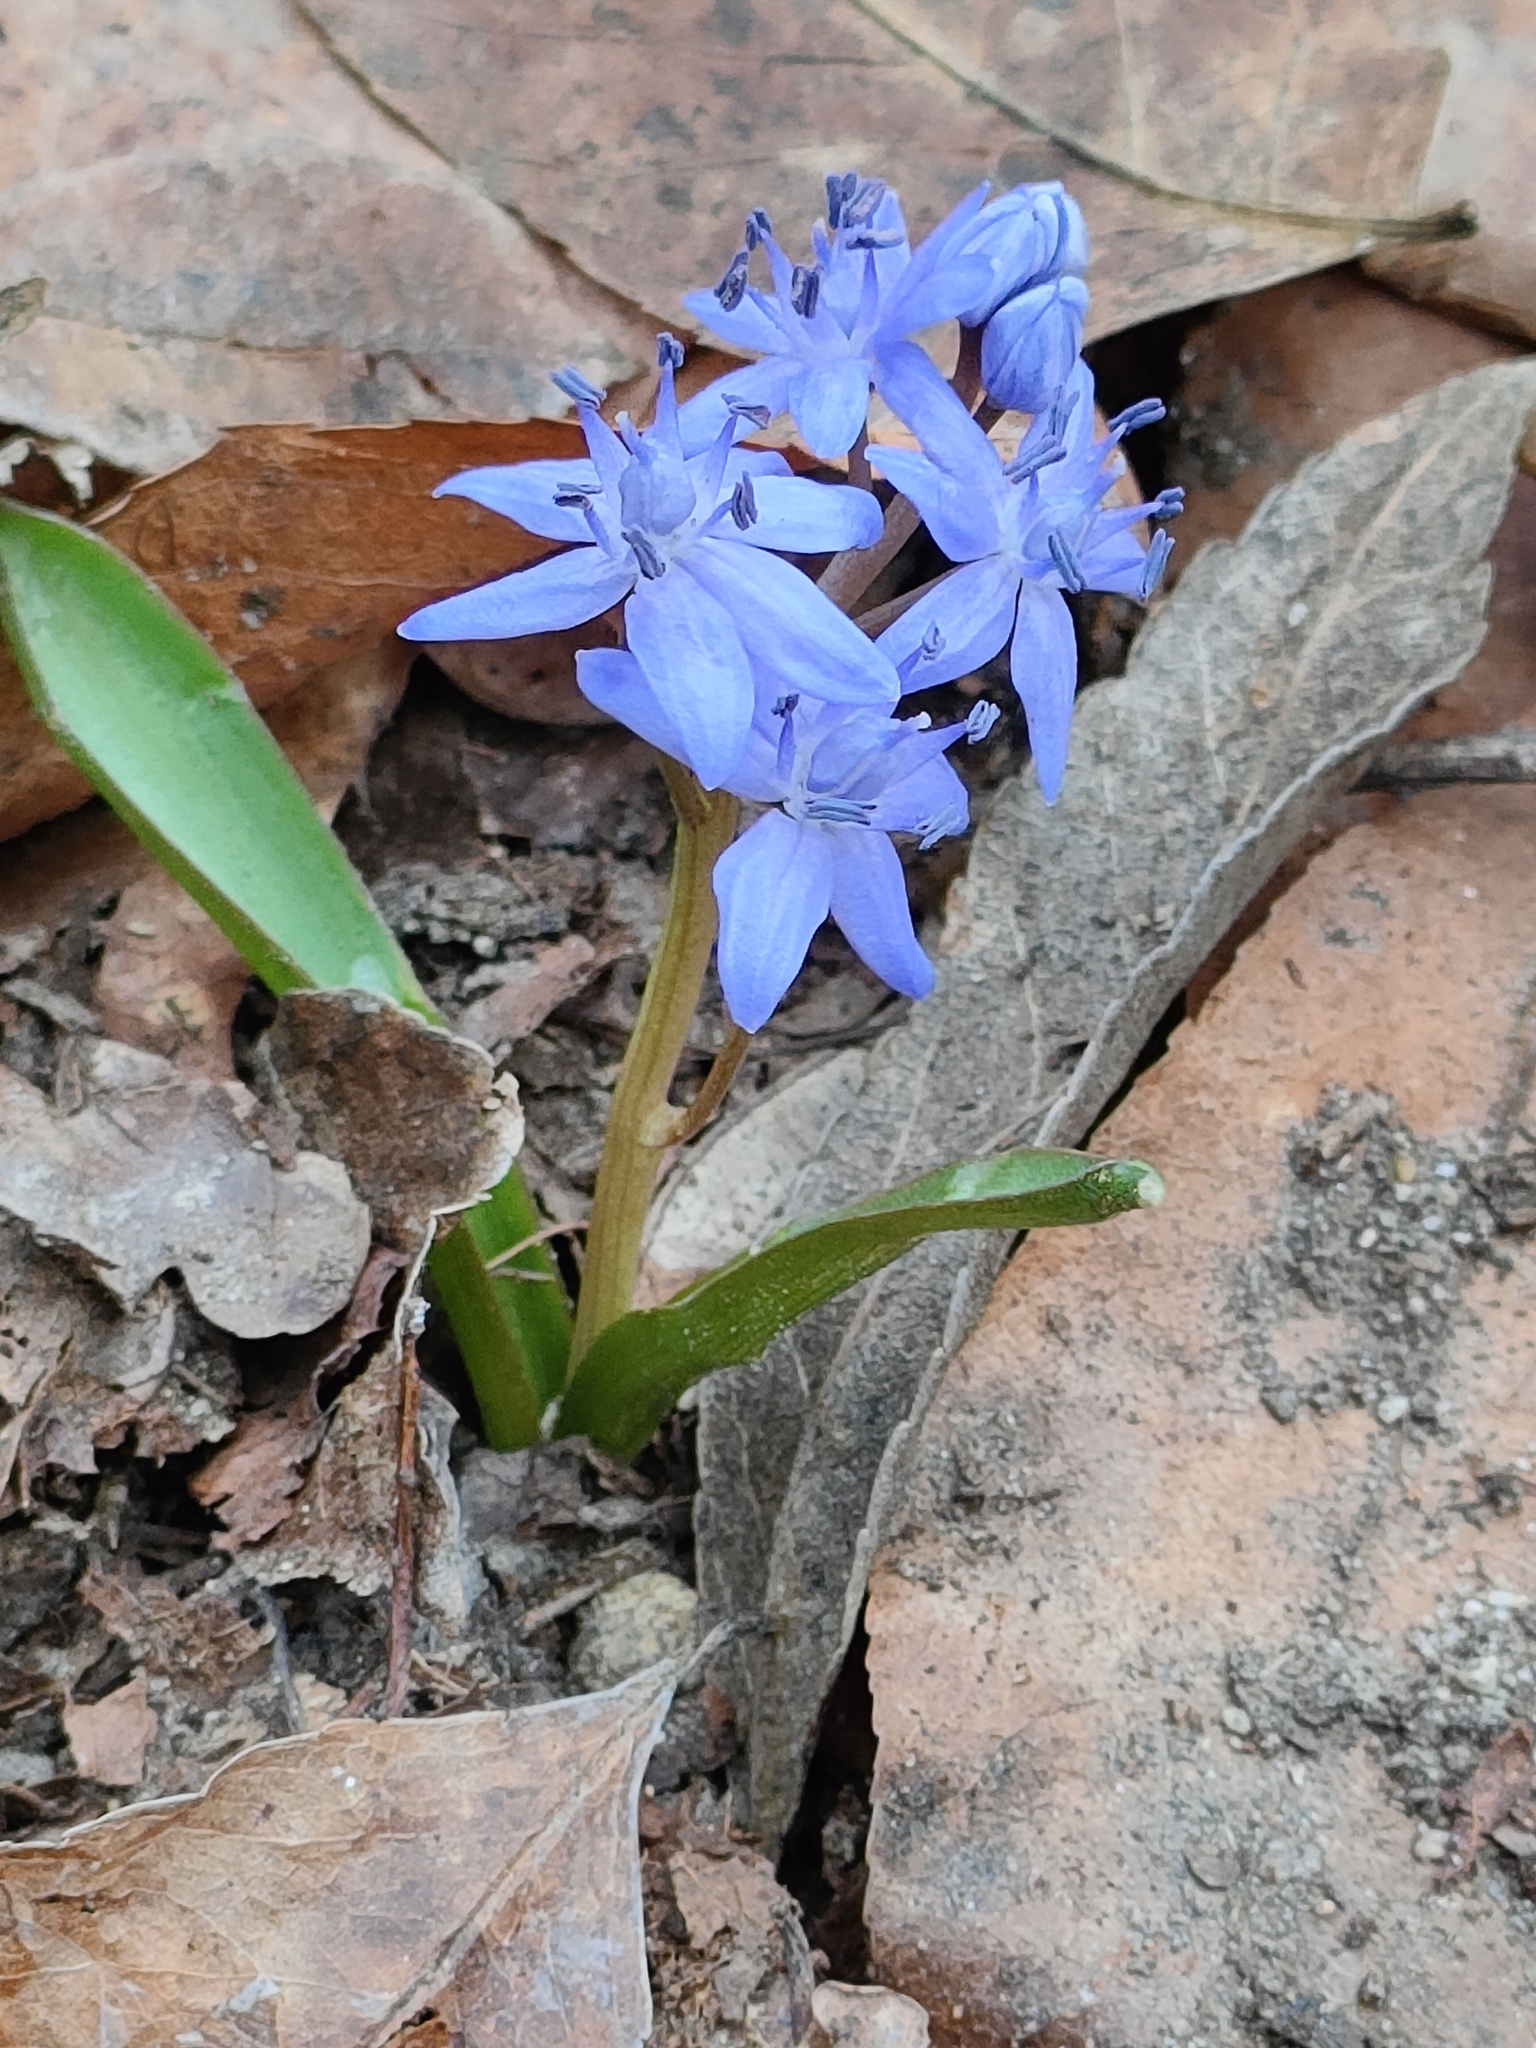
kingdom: Plantae
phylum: Tracheophyta
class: Liliopsida
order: Asparagales
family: Asparagaceae
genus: Scilla
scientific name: Scilla bifolia
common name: Alpine squill
